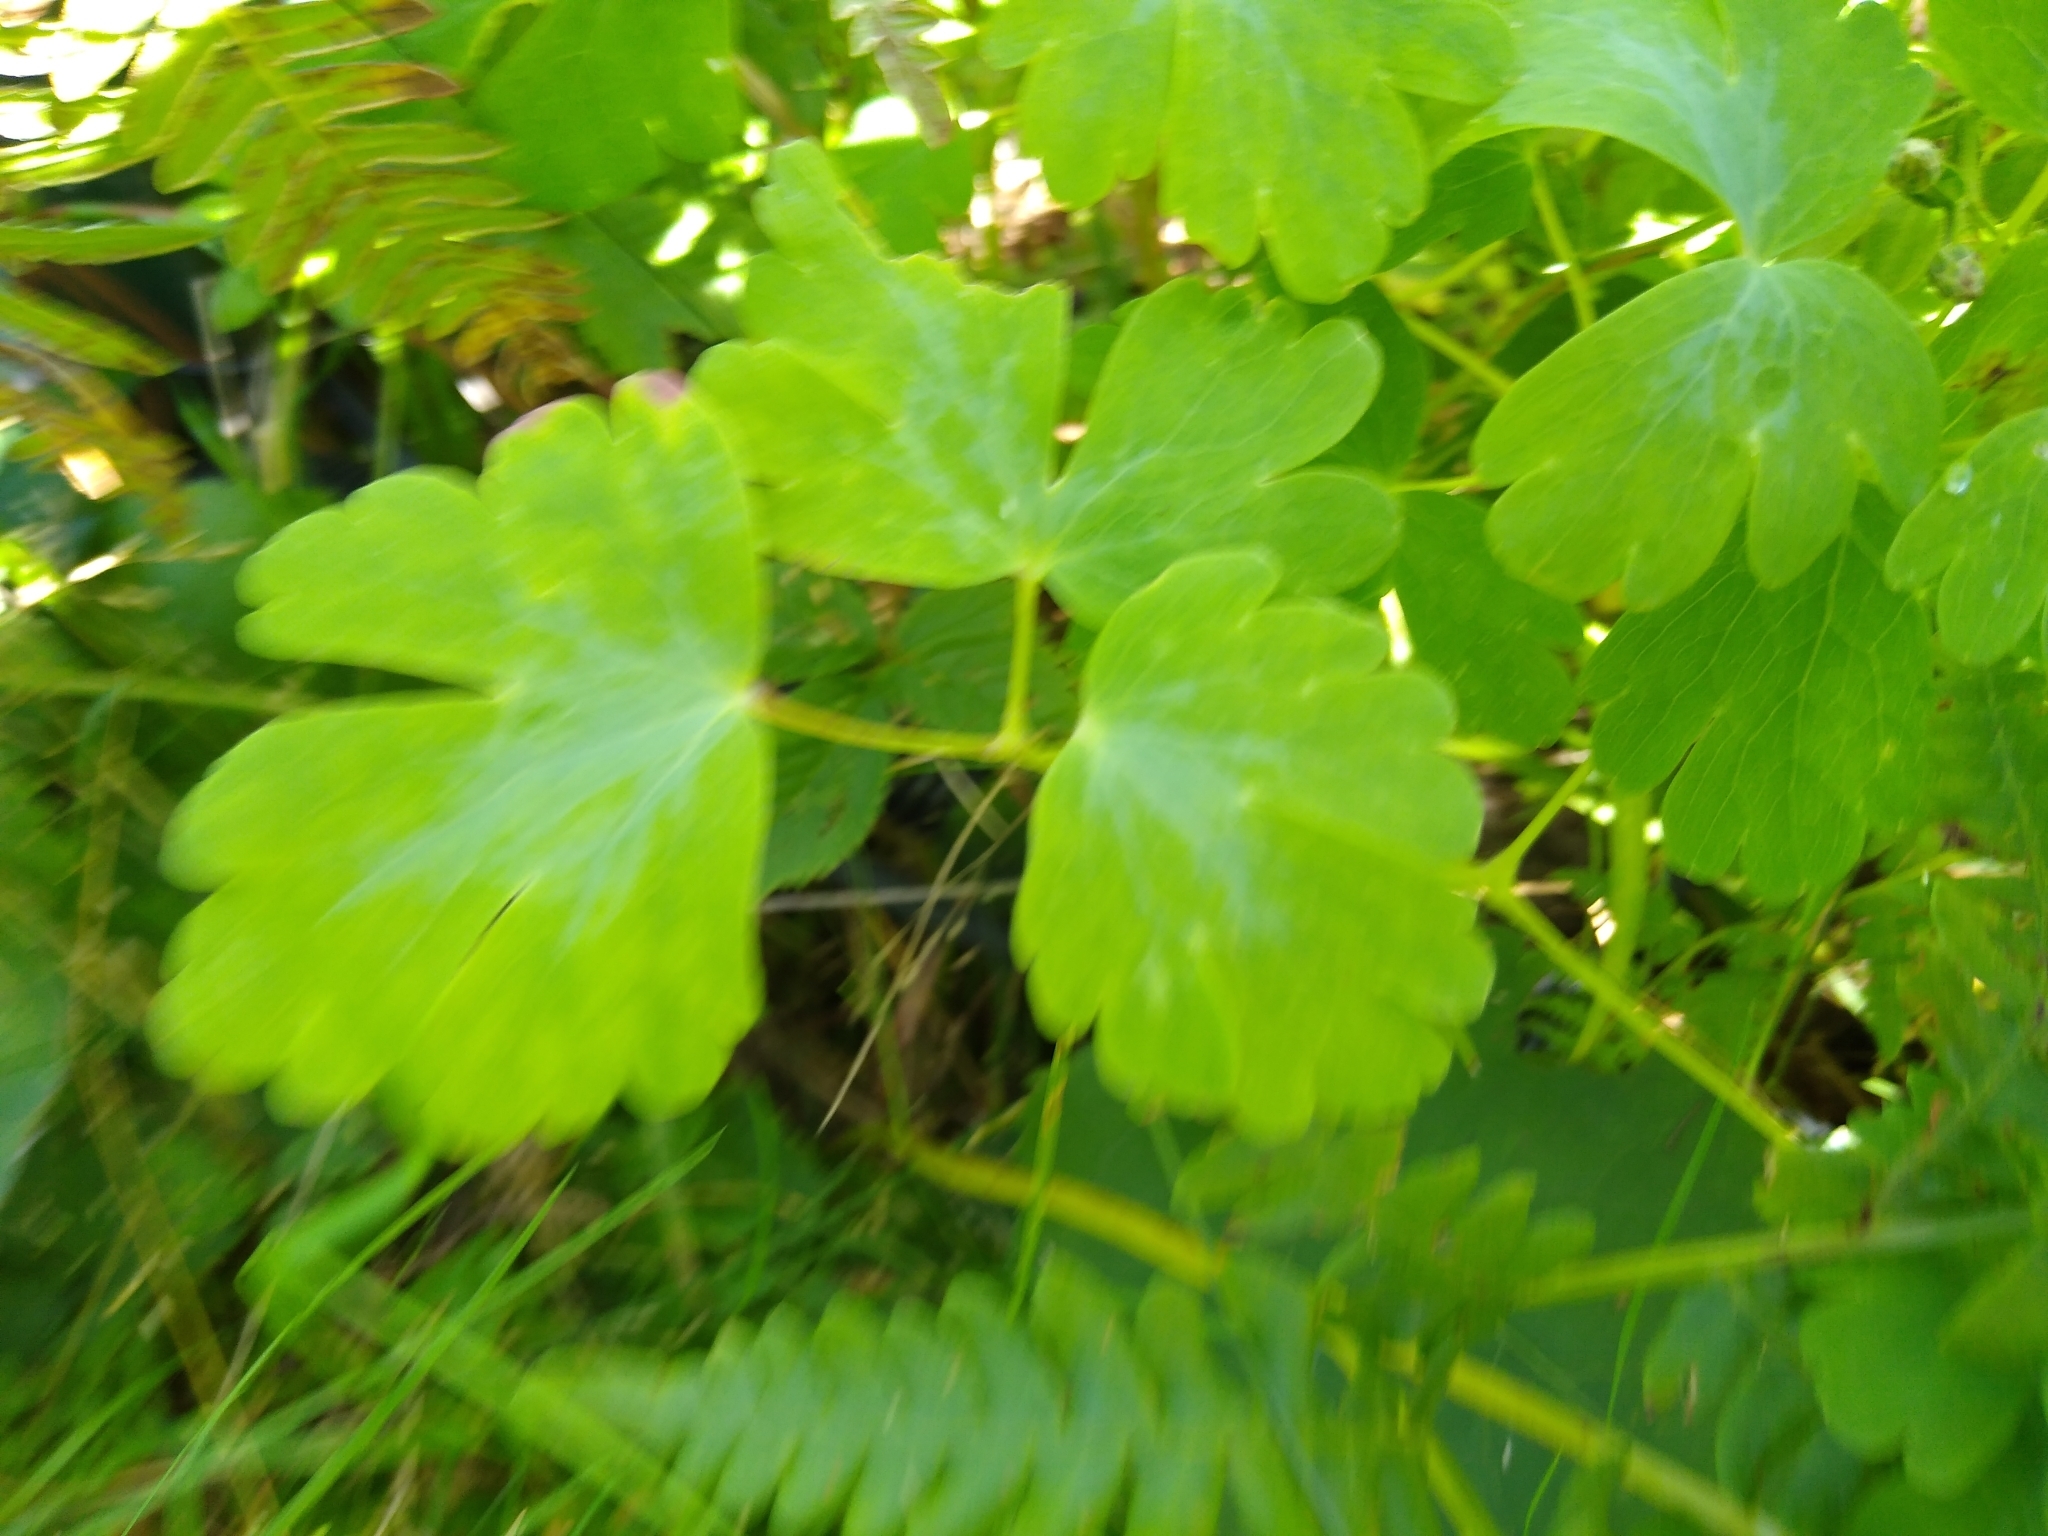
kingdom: Plantae
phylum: Tracheophyta
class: Magnoliopsida
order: Ranunculales
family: Ranunculaceae
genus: Aquilegia
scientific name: Aquilegia canadensis
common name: American columbine
